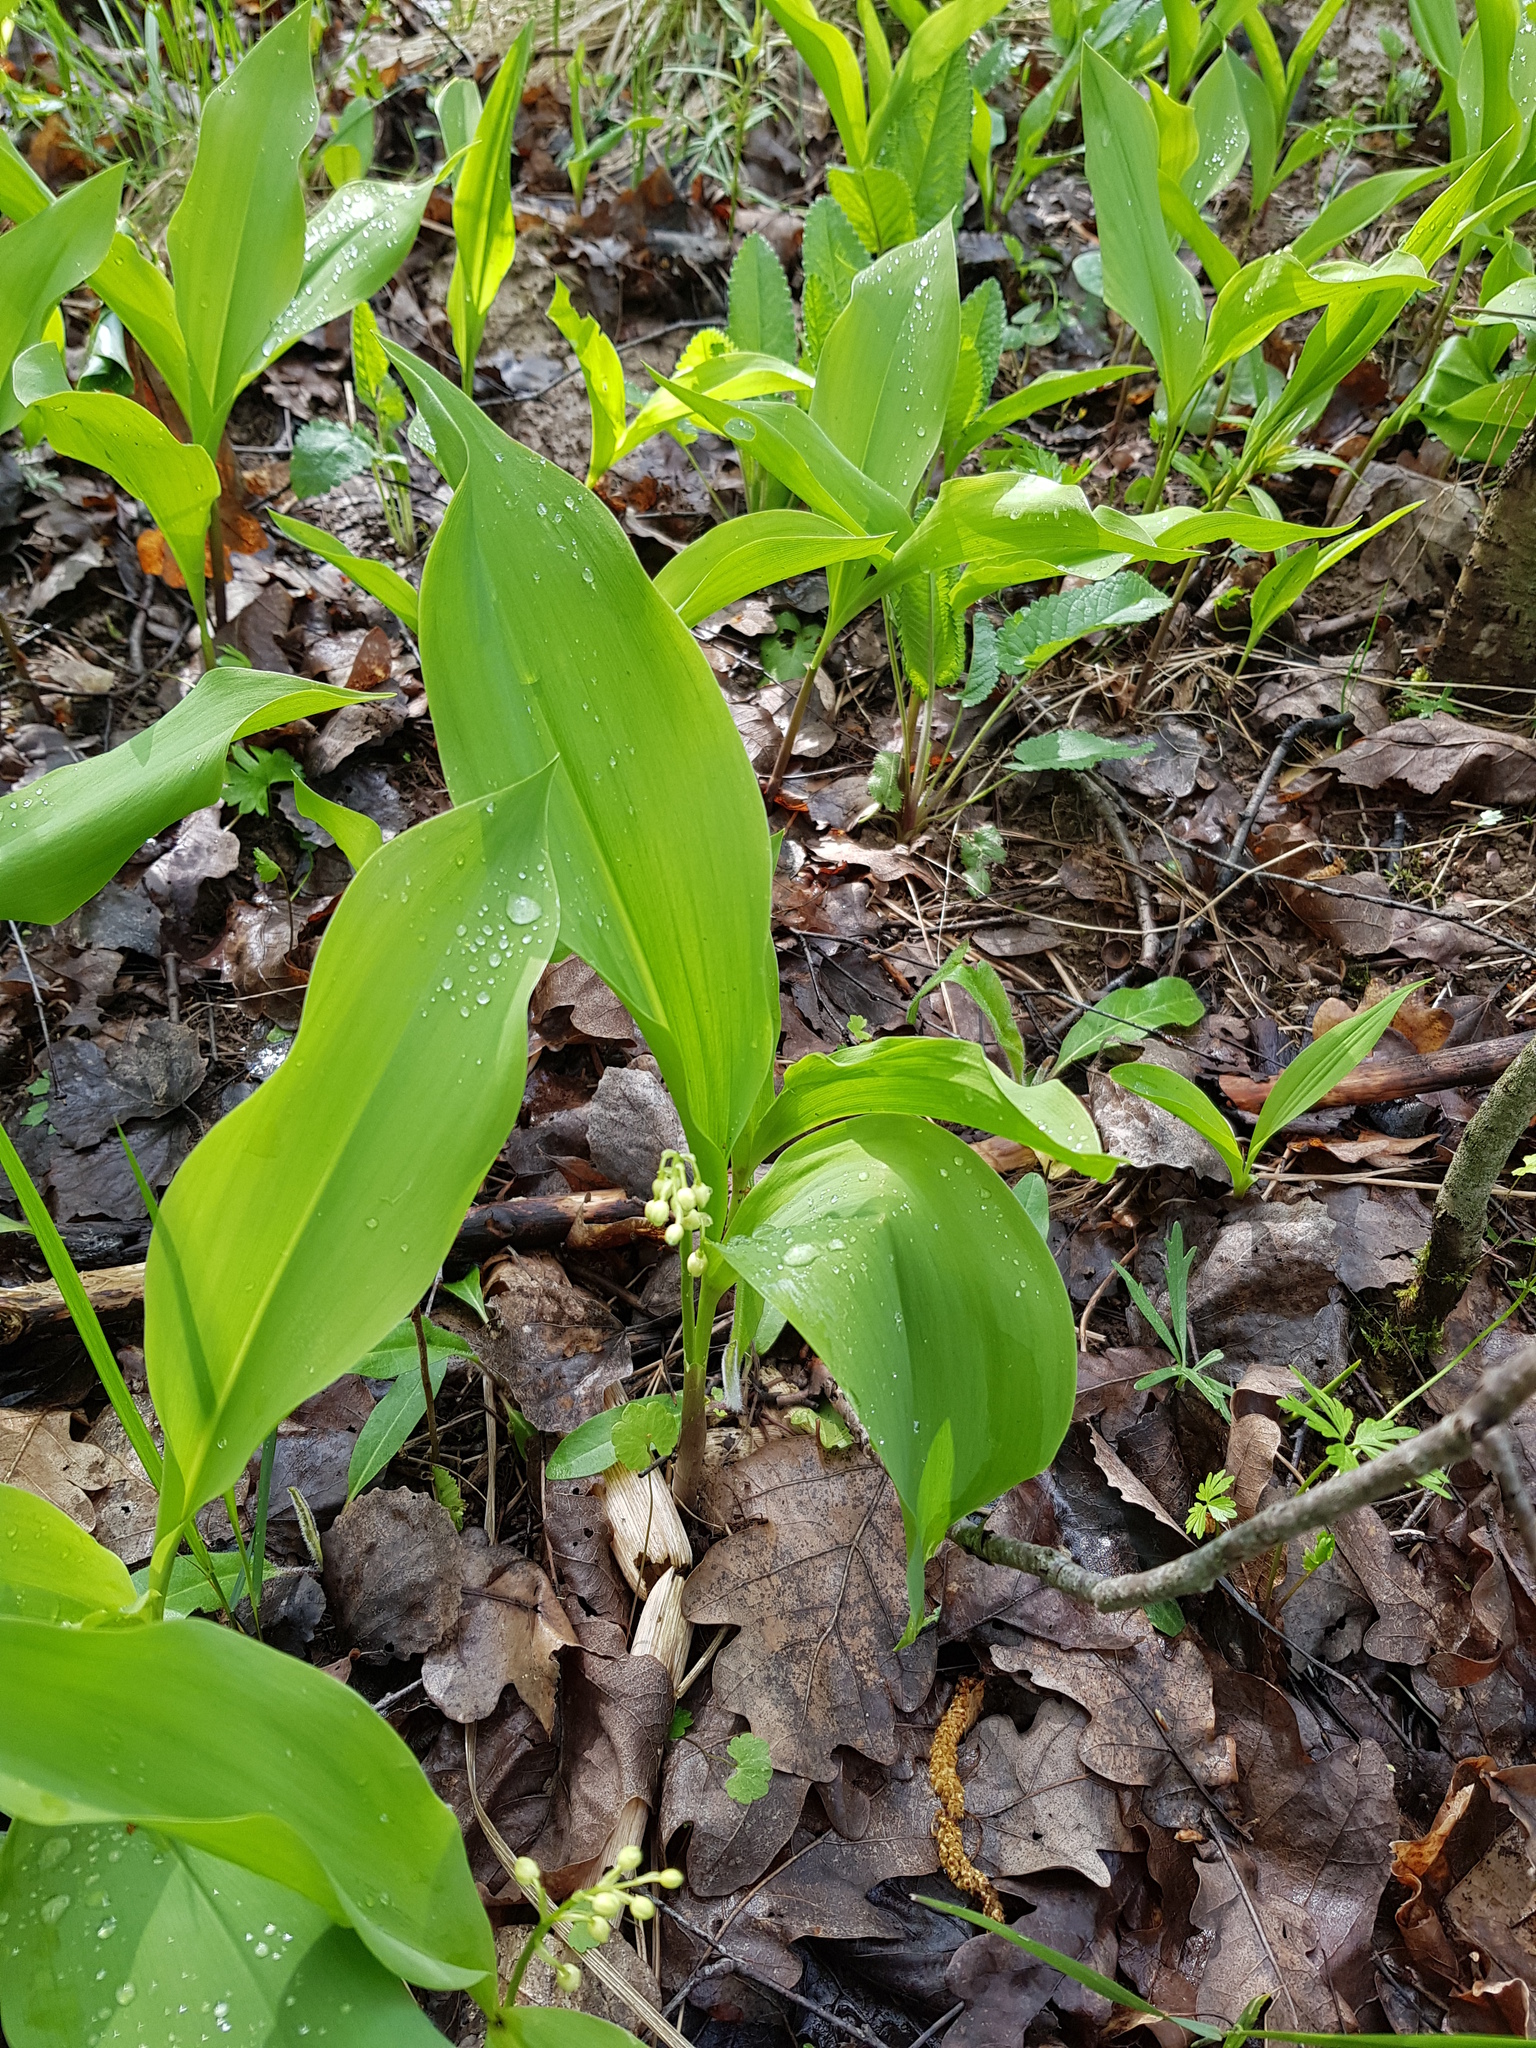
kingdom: Plantae
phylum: Tracheophyta
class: Liliopsida
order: Asparagales
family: Asparagaceae
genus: Convallaria
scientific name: Convallaria majalis
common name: Lily-of-the-valley
